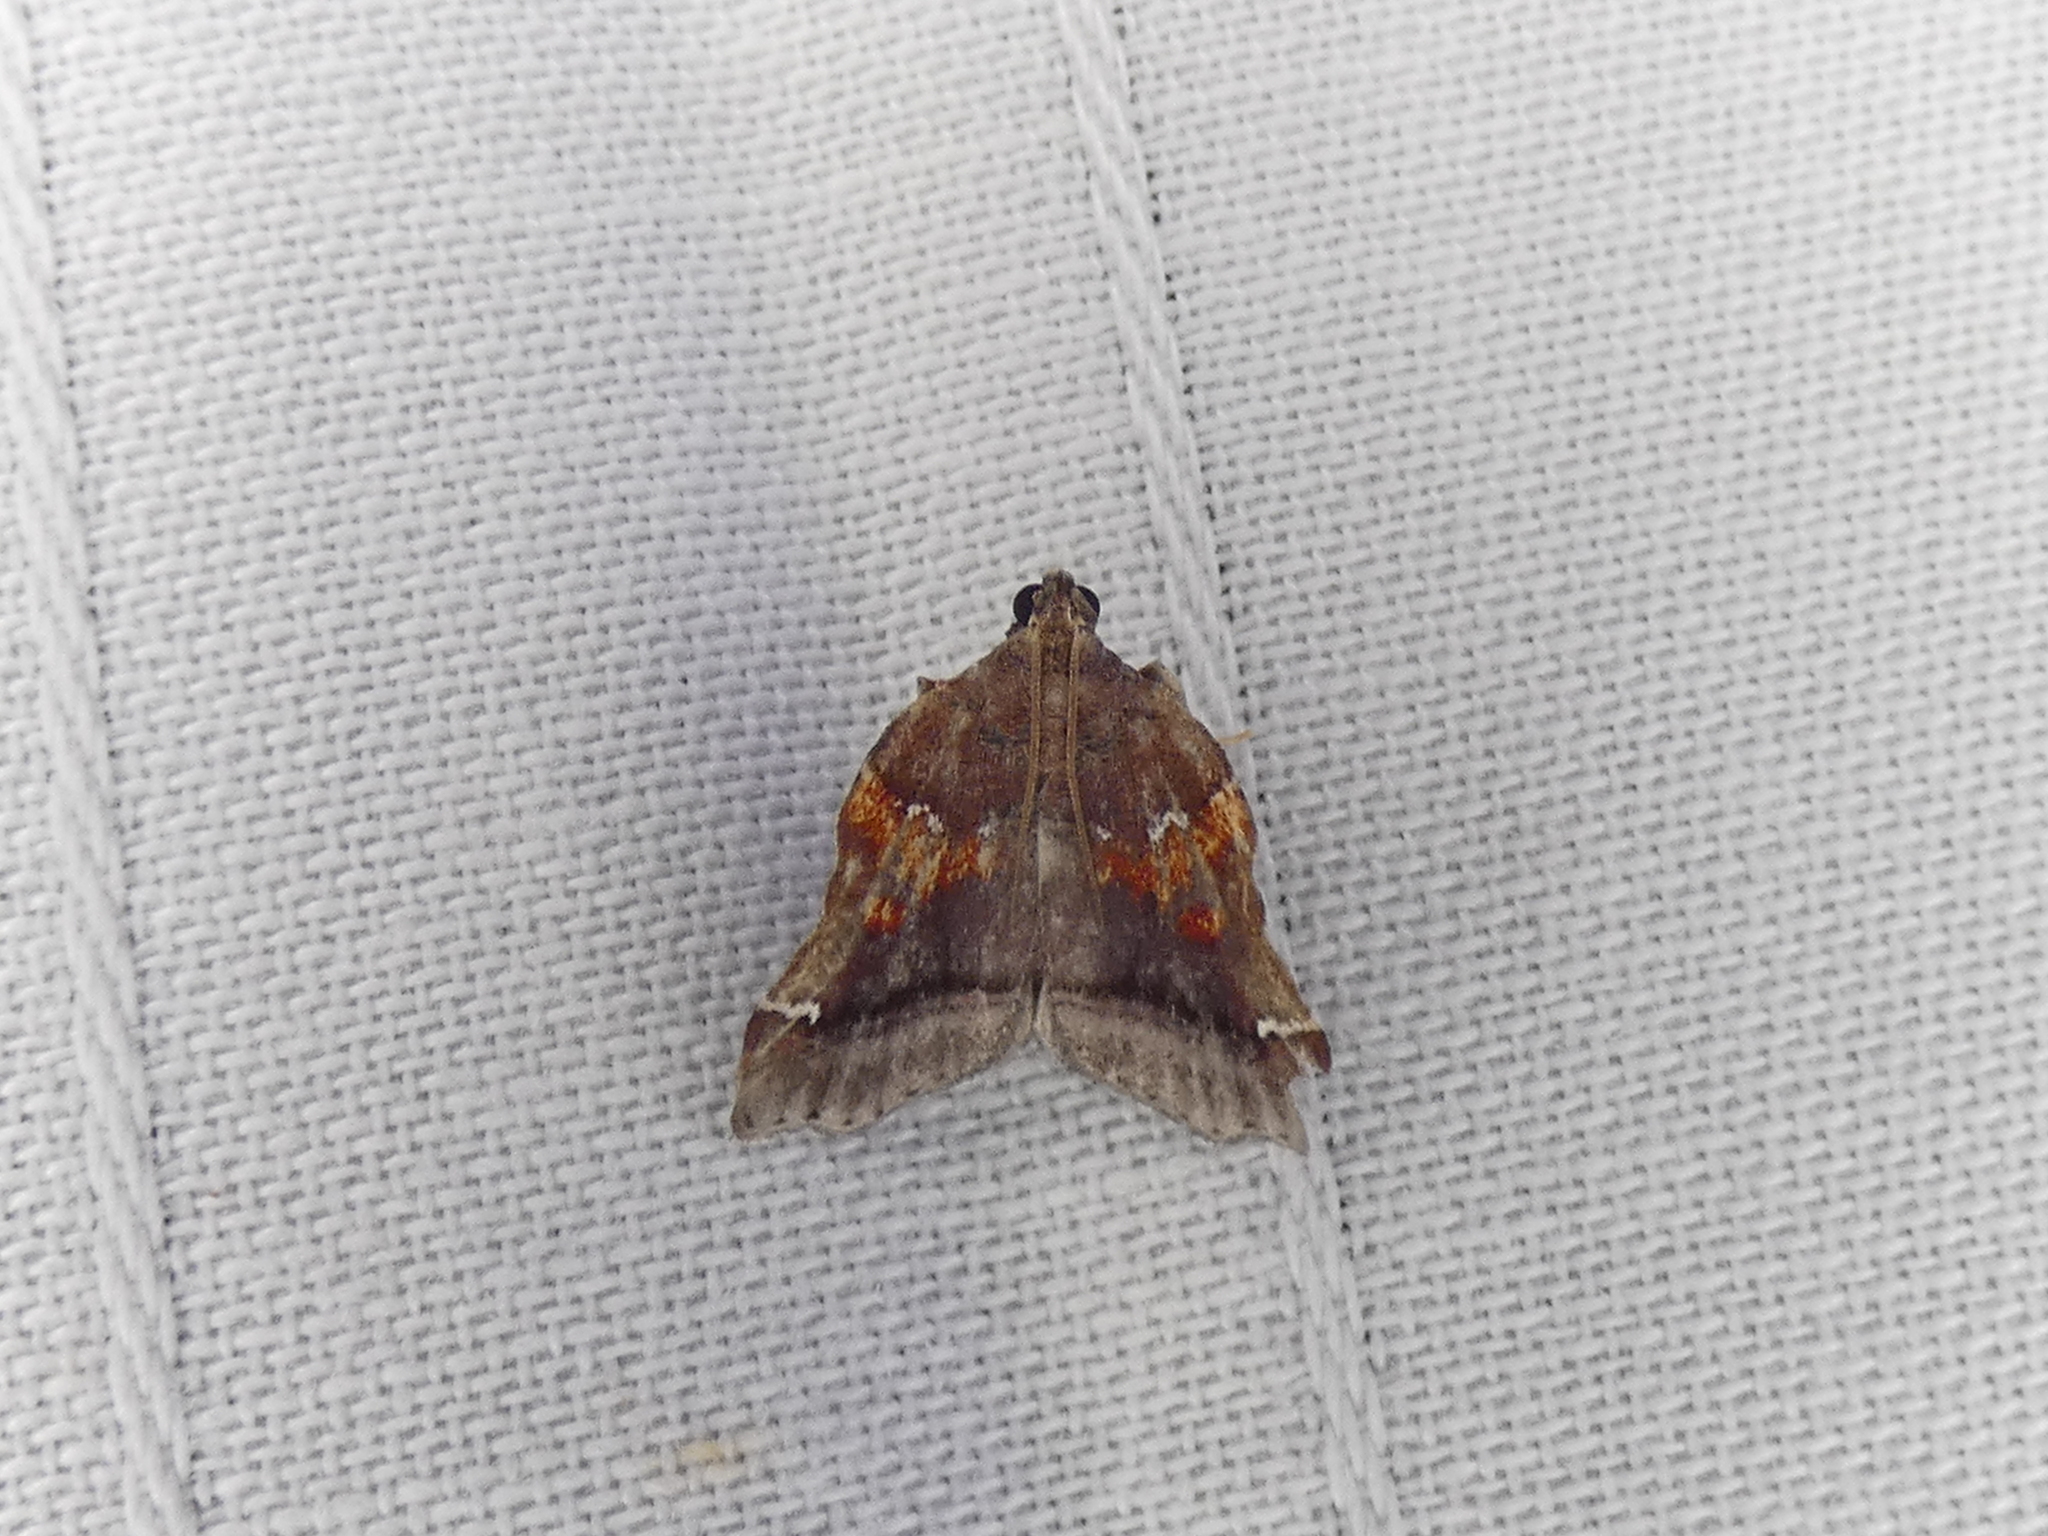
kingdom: Animalia
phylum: Arthropoda
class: Insecta
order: Lepidoptera
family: Pyralidae
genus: Clydonopteron
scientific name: Clydonopteron sacculana
